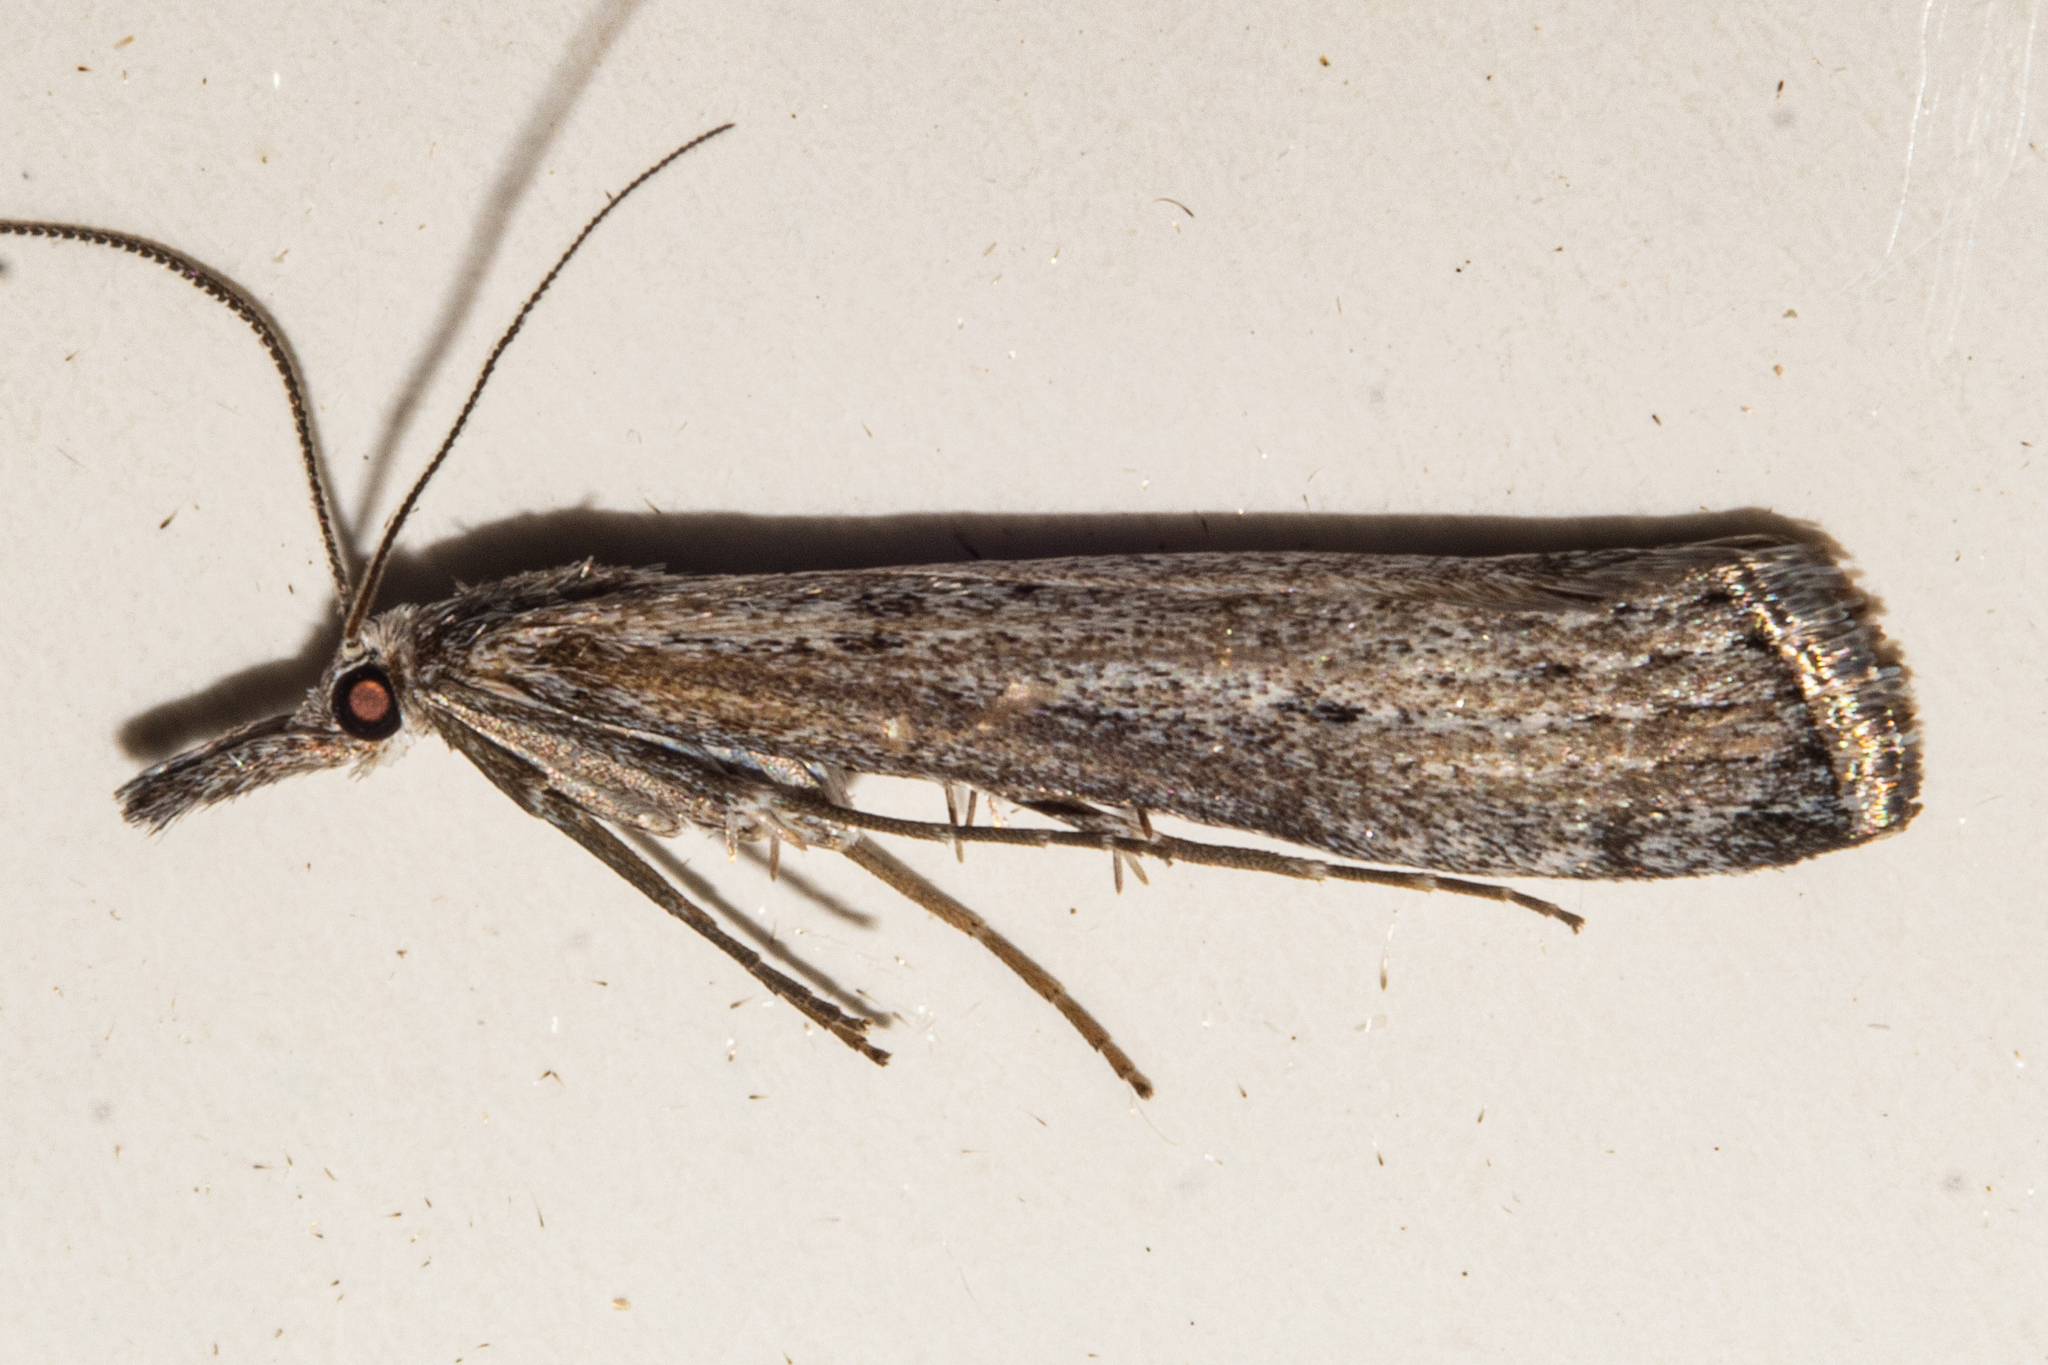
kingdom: Animalia
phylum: Arthropoda
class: Insecta
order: Lepidoptera
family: Crambidae
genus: Orocrambus
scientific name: Orocrambus cyclopicus
